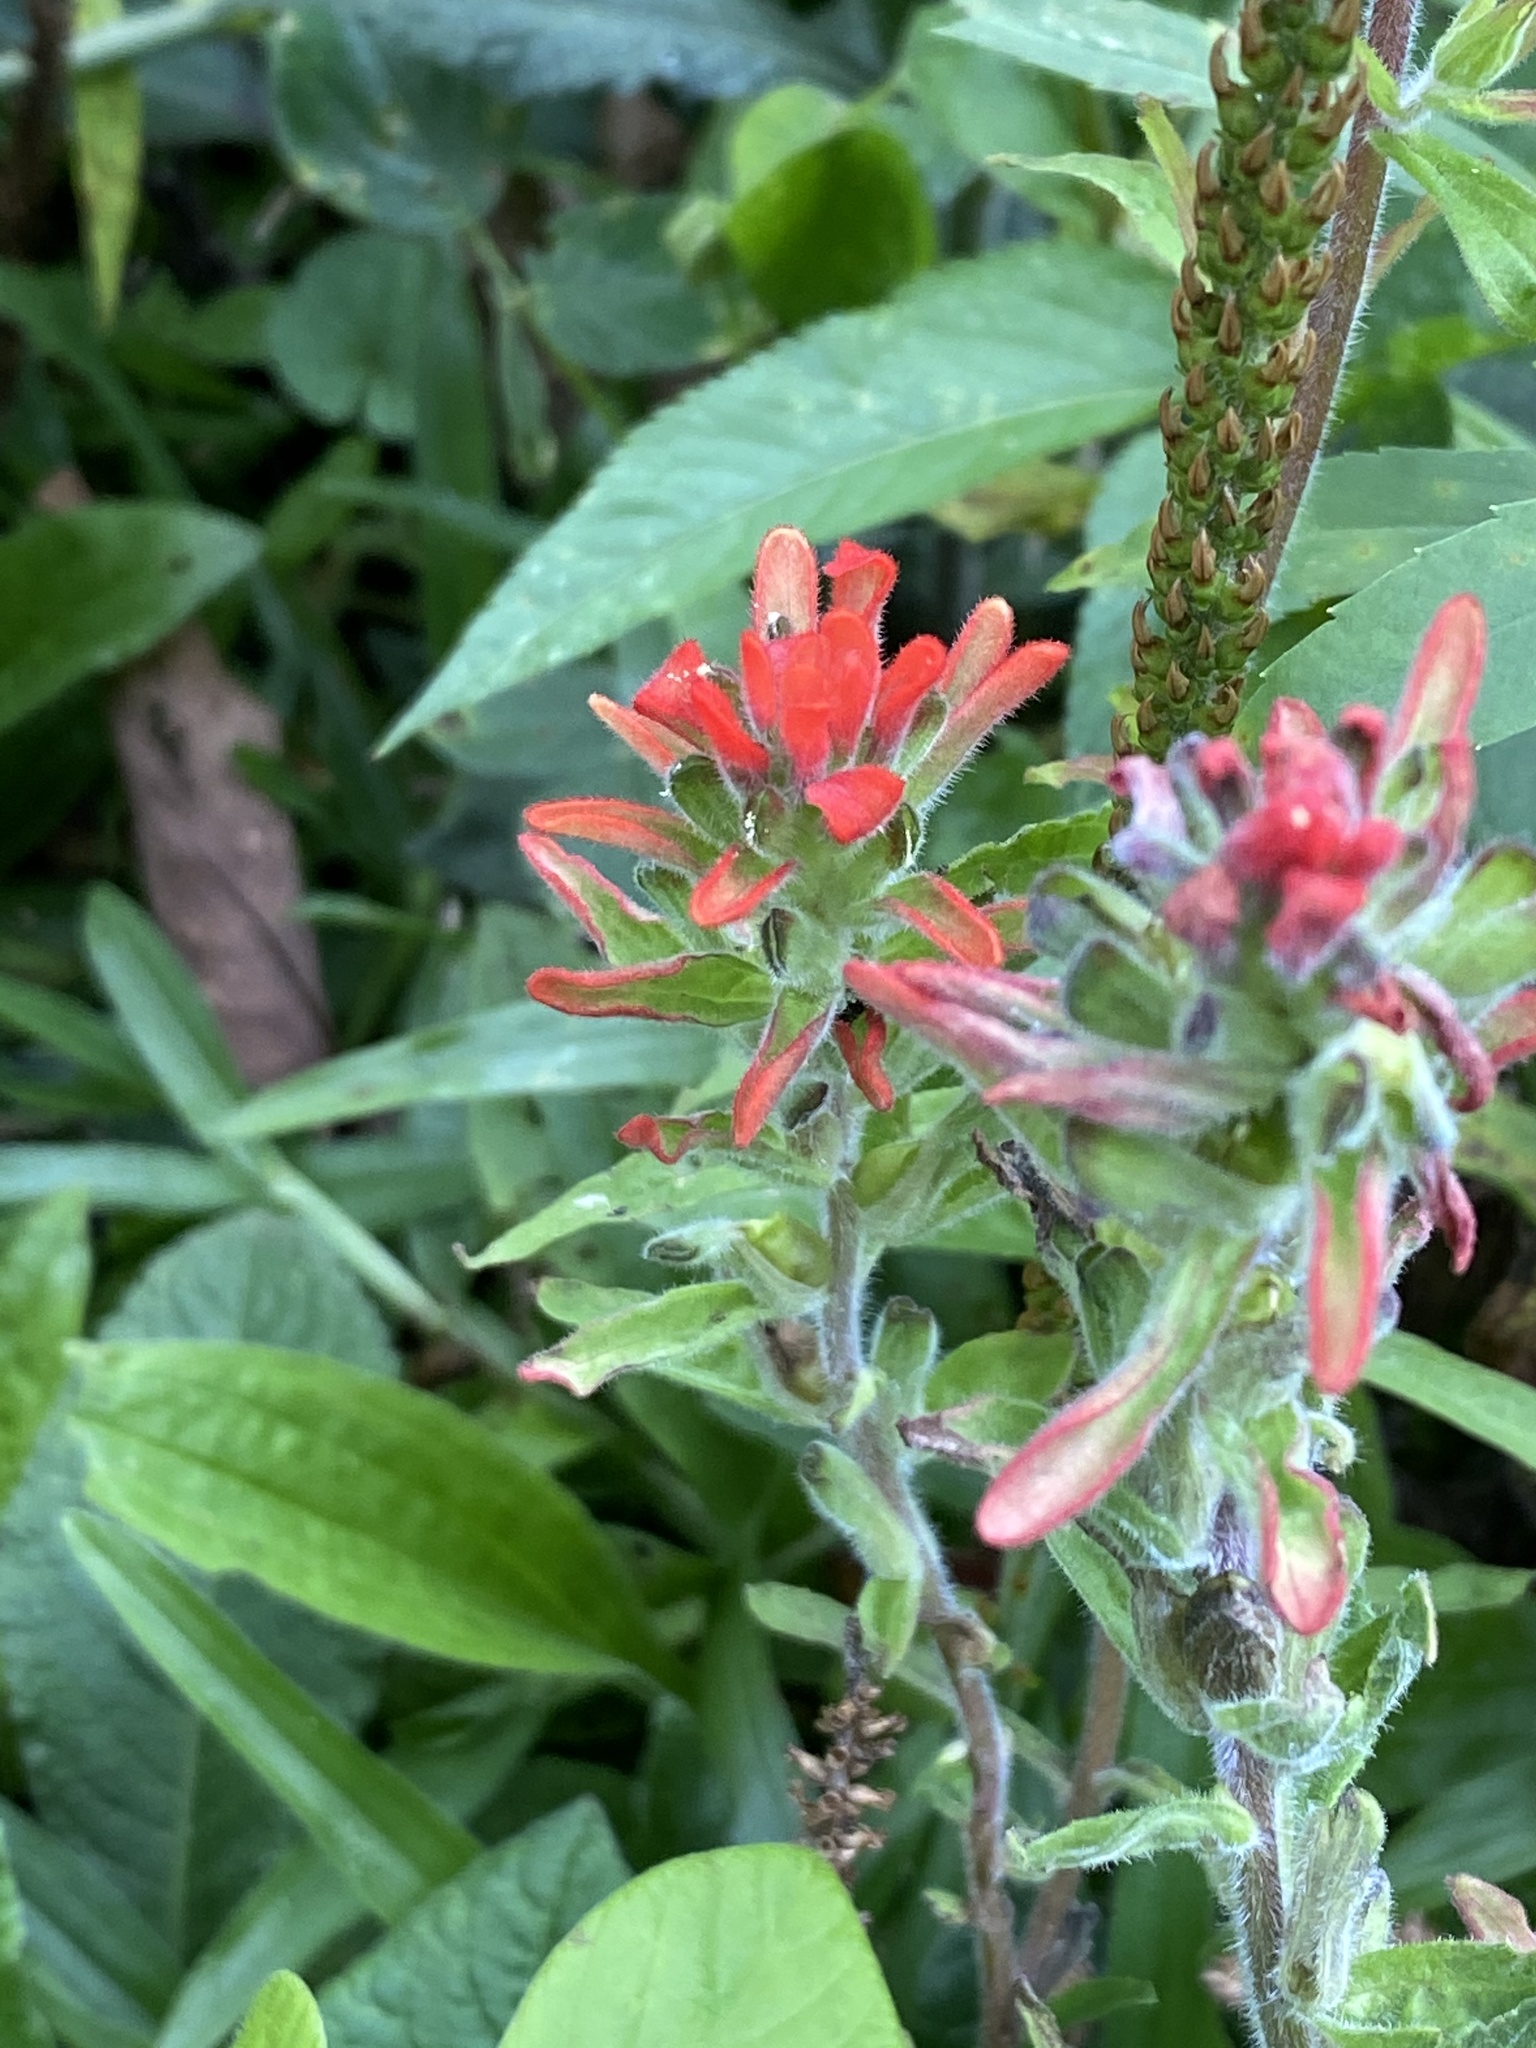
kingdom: Plantae
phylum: Tracheophyta
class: Magnoliopsida
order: Lamiales
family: Orobanchaceae
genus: Castilleja
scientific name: Castilleja arvensis
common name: Indian paintbrush
